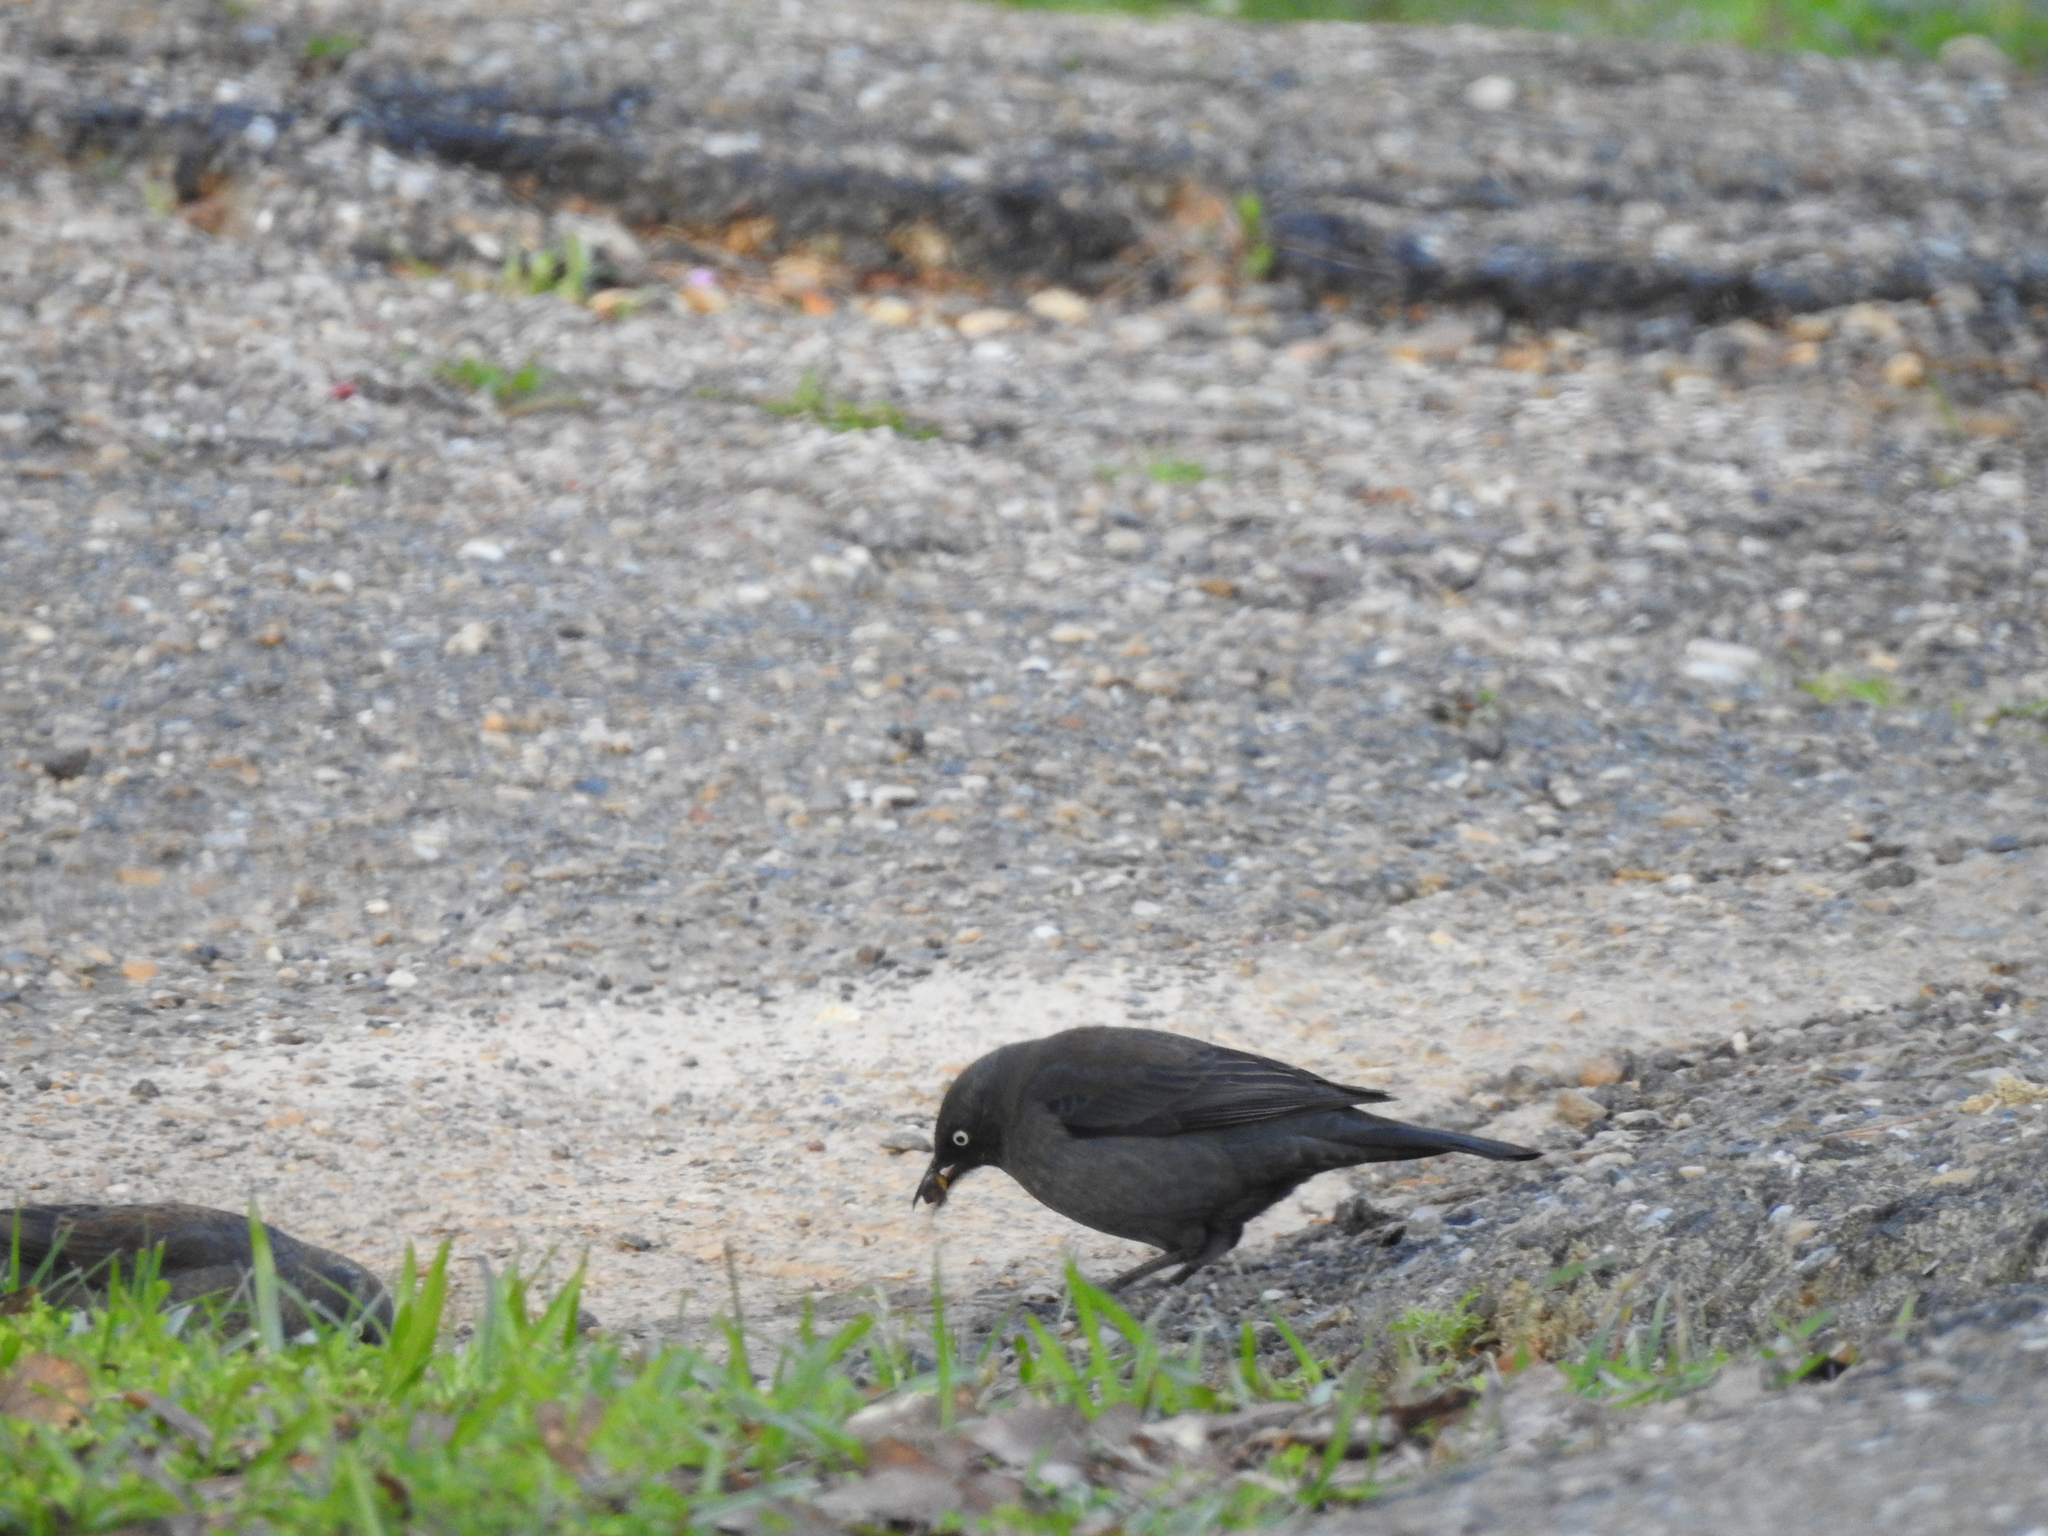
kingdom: Animalia
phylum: Chordata
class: Aves
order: Passeriformes
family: Icteridae
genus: Euphagus
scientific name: Euphagus carolinus
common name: Rusty blackbird
